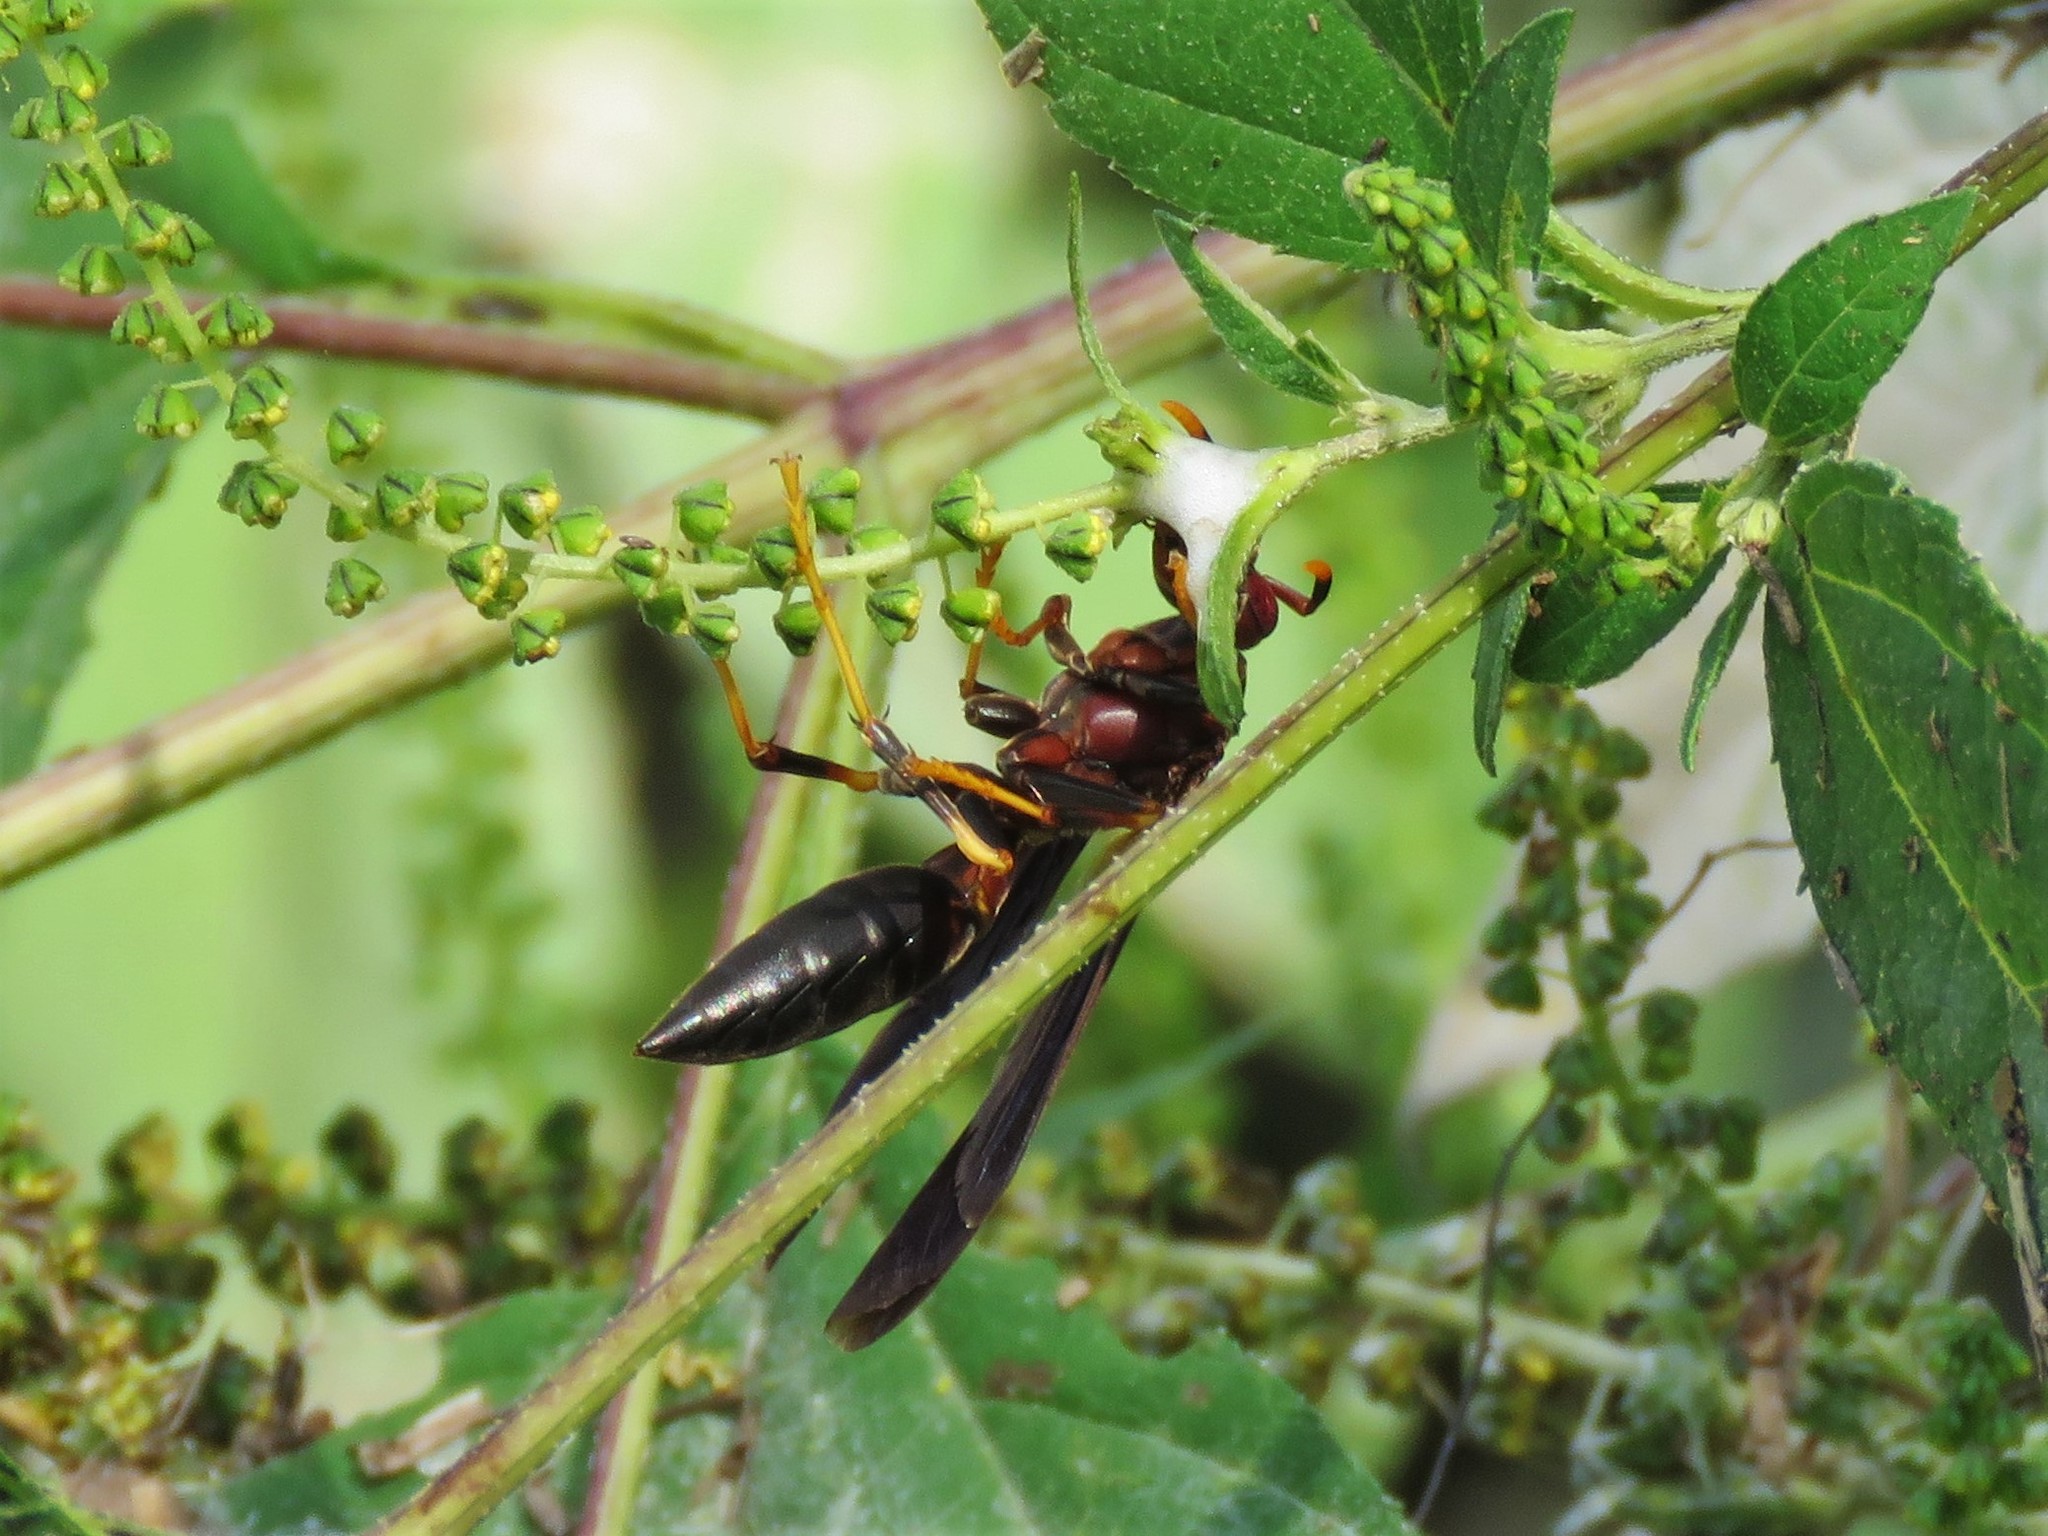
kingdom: Animalia
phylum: Arthropoda
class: Insecta
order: Hymenoptera
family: Eumenidae
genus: Polistes
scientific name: Polistes annularis
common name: Ringed paper wasp
